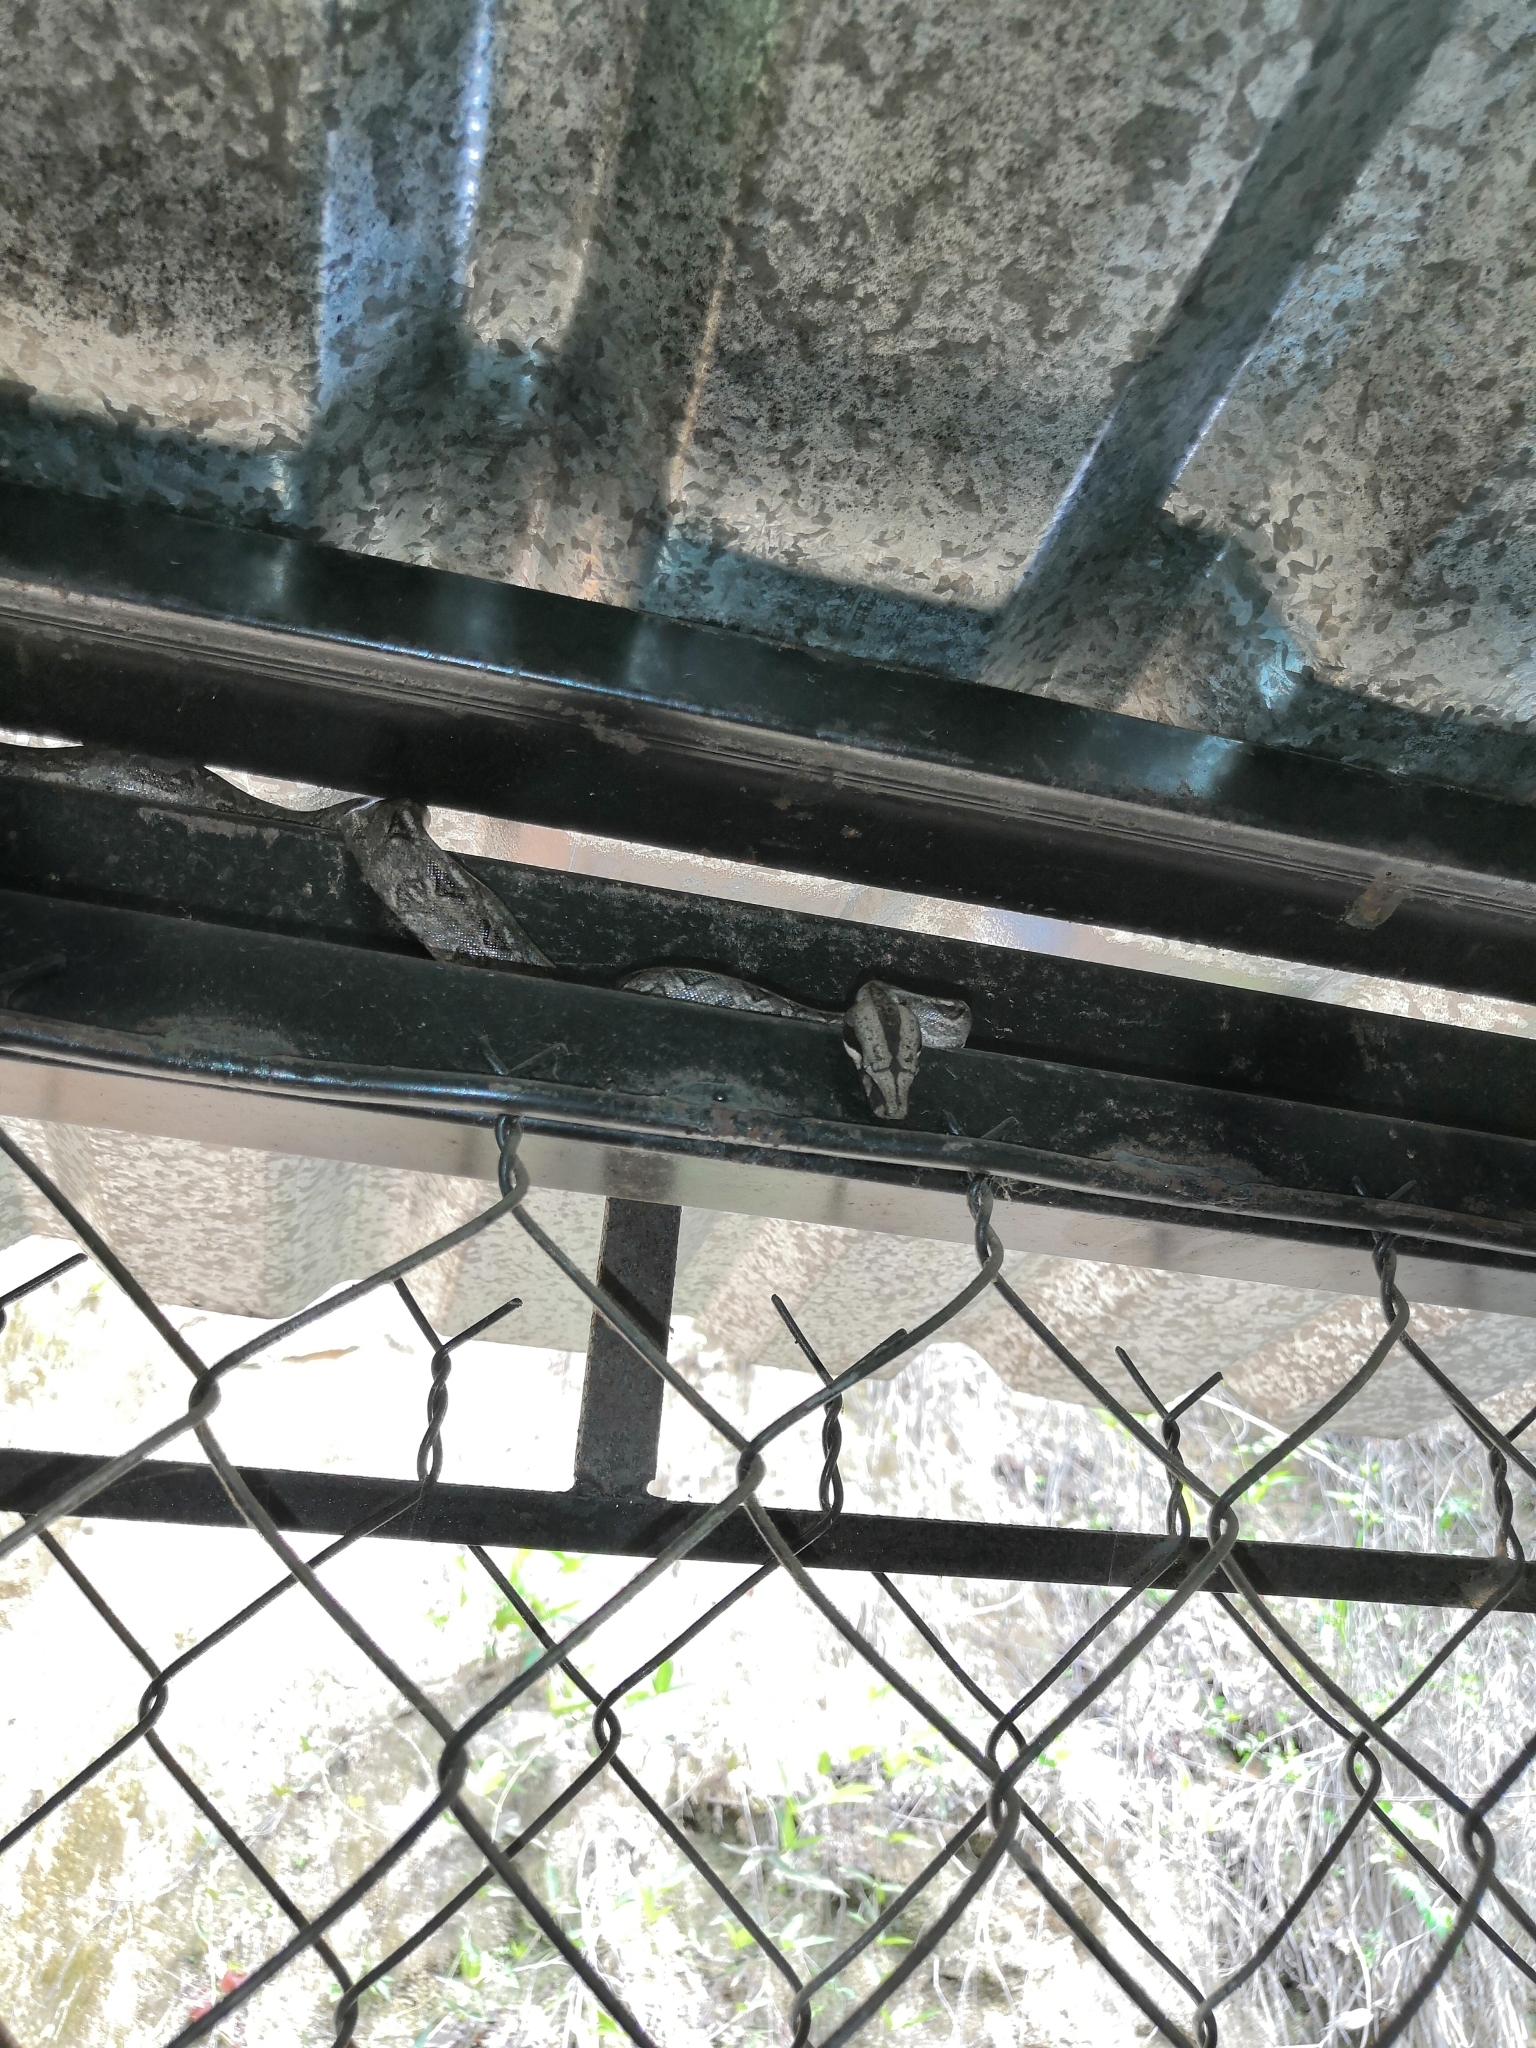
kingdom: Animalia
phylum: Chordata
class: Squamata
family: Boidae
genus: Boa
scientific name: Boa
